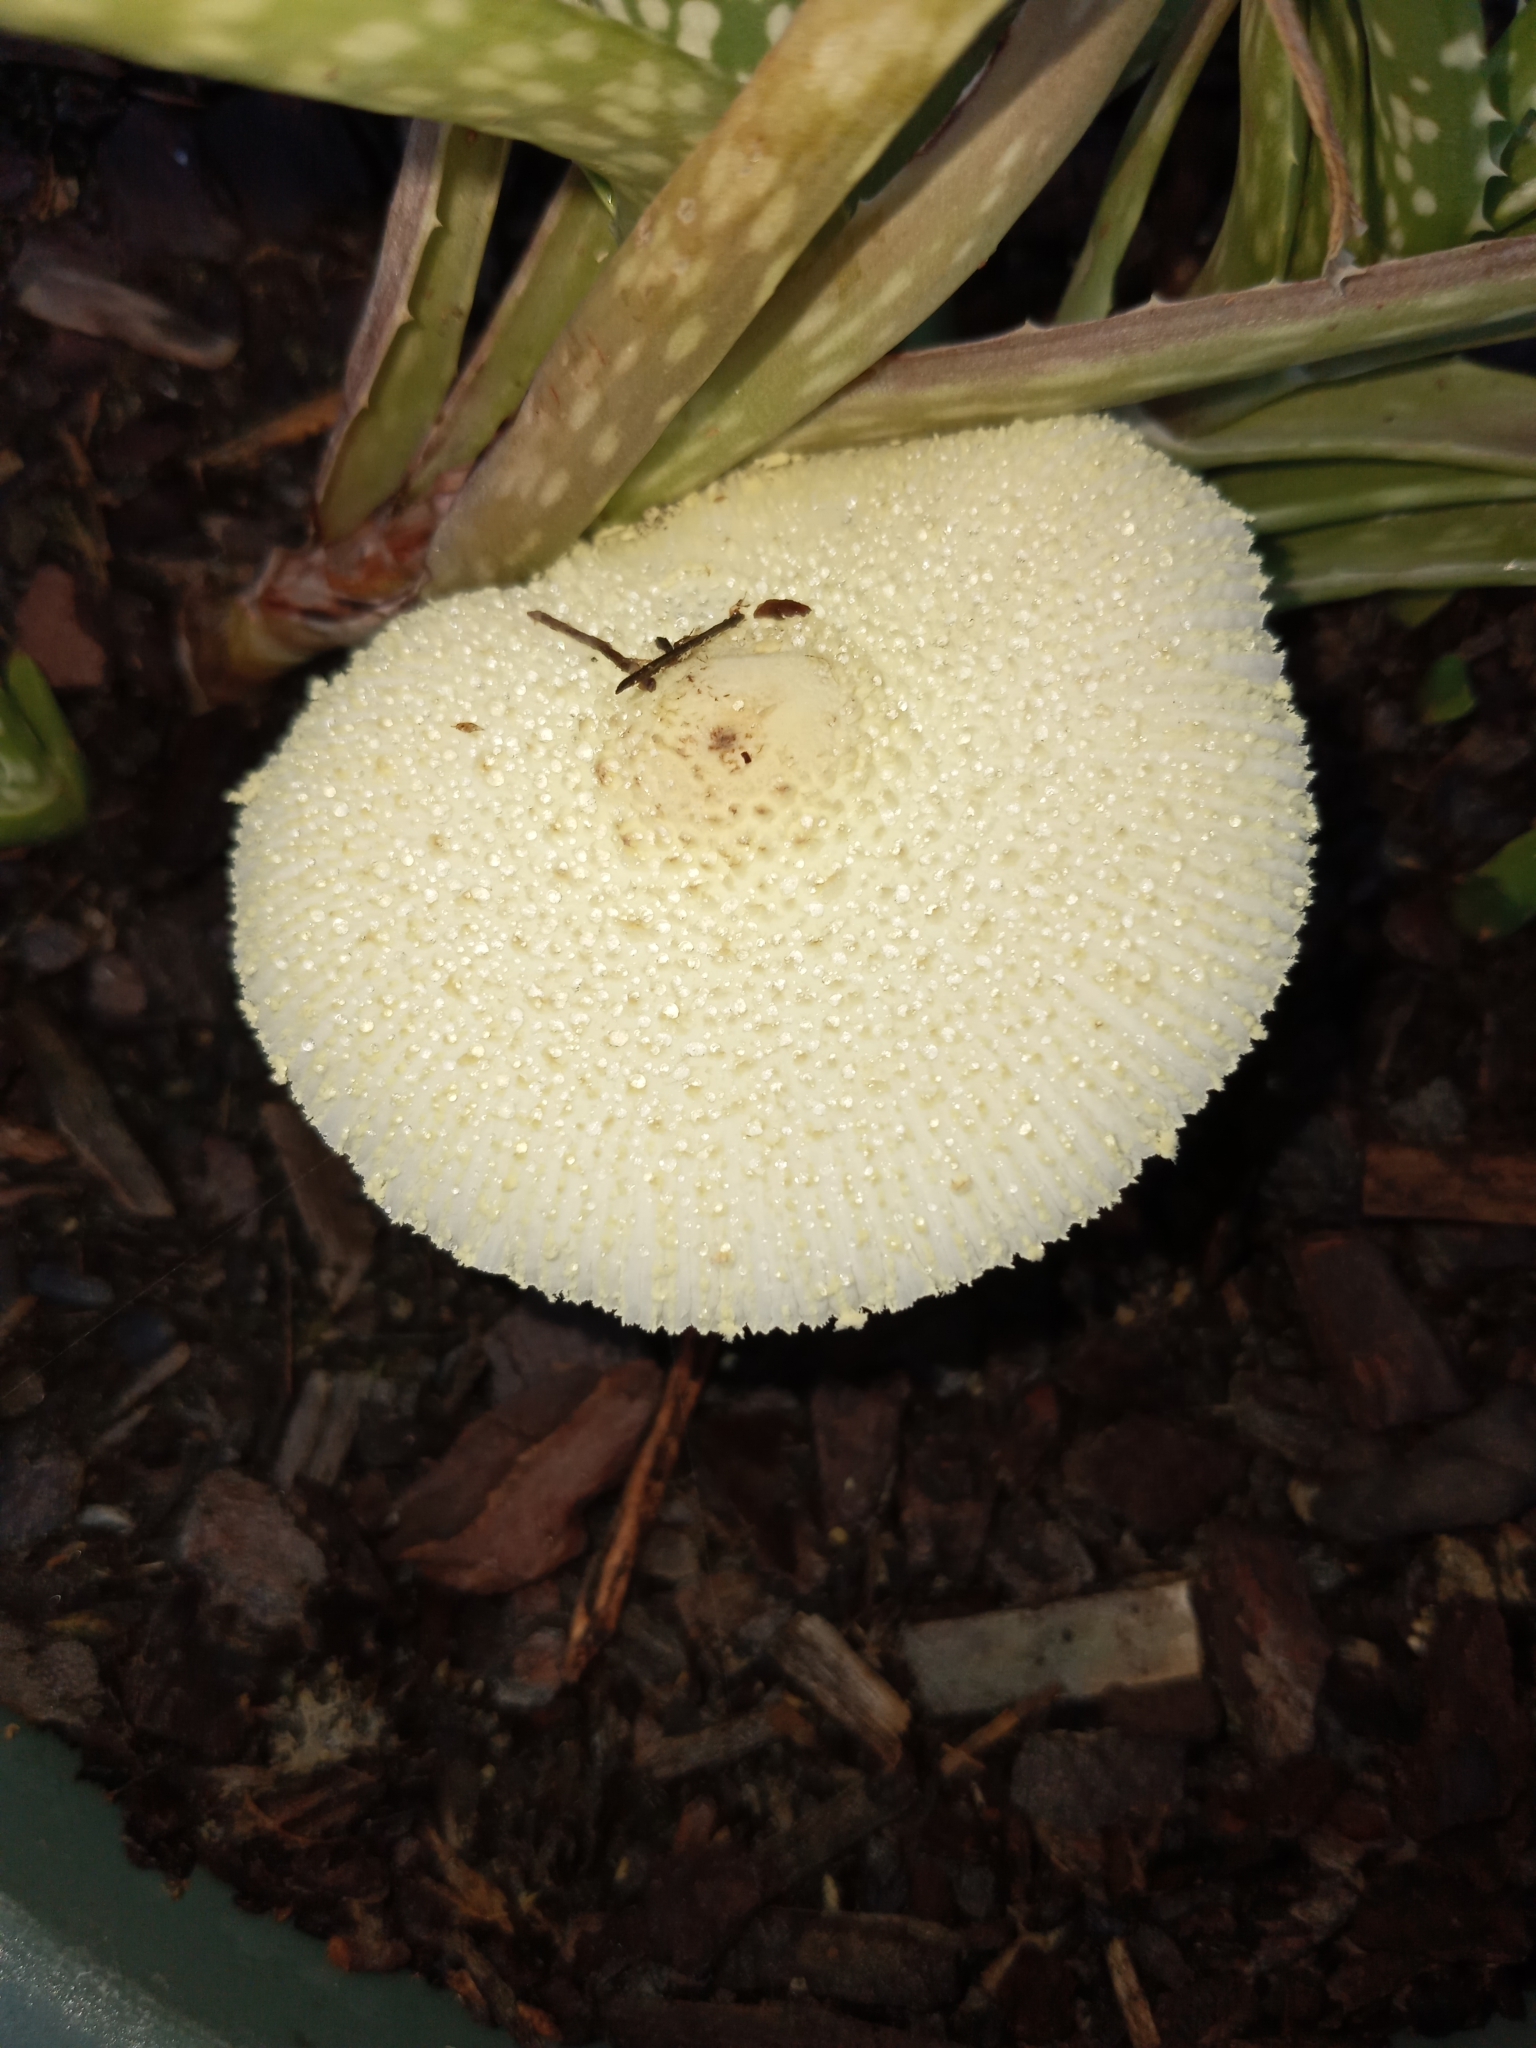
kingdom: Fungi
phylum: Basidiomycota
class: Agaricomycetes
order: Agaricales
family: Agaricaceae
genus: Leucocoprinus
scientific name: Leucocoprinus birnbaumii
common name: Plantpot dapperling
